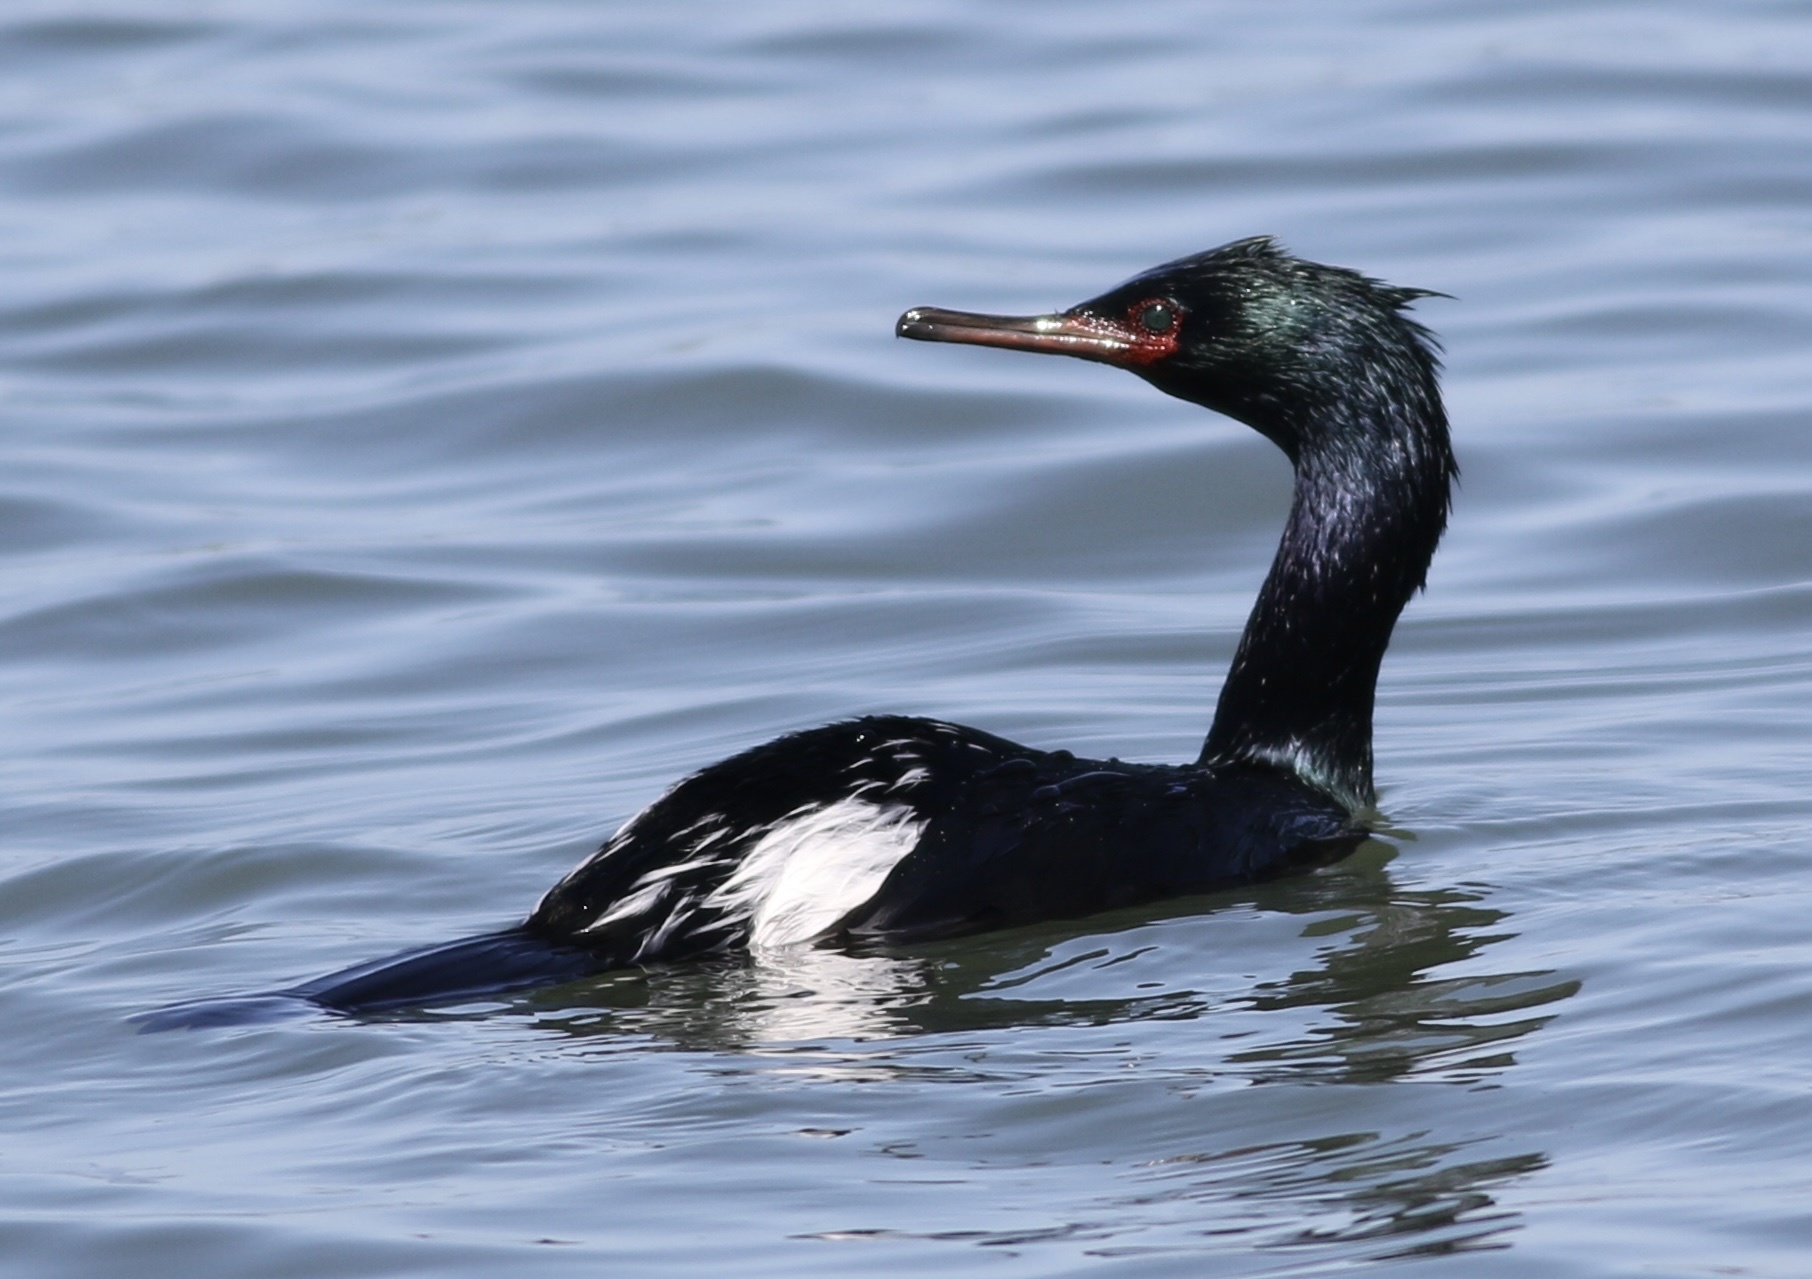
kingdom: Animalia
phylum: Chordata
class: Aves
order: Suliformes
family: Phalacrocoracidae
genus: Phalacrocorax
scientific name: Phalacrocorax pelagicus
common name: Pelagic cormorant
